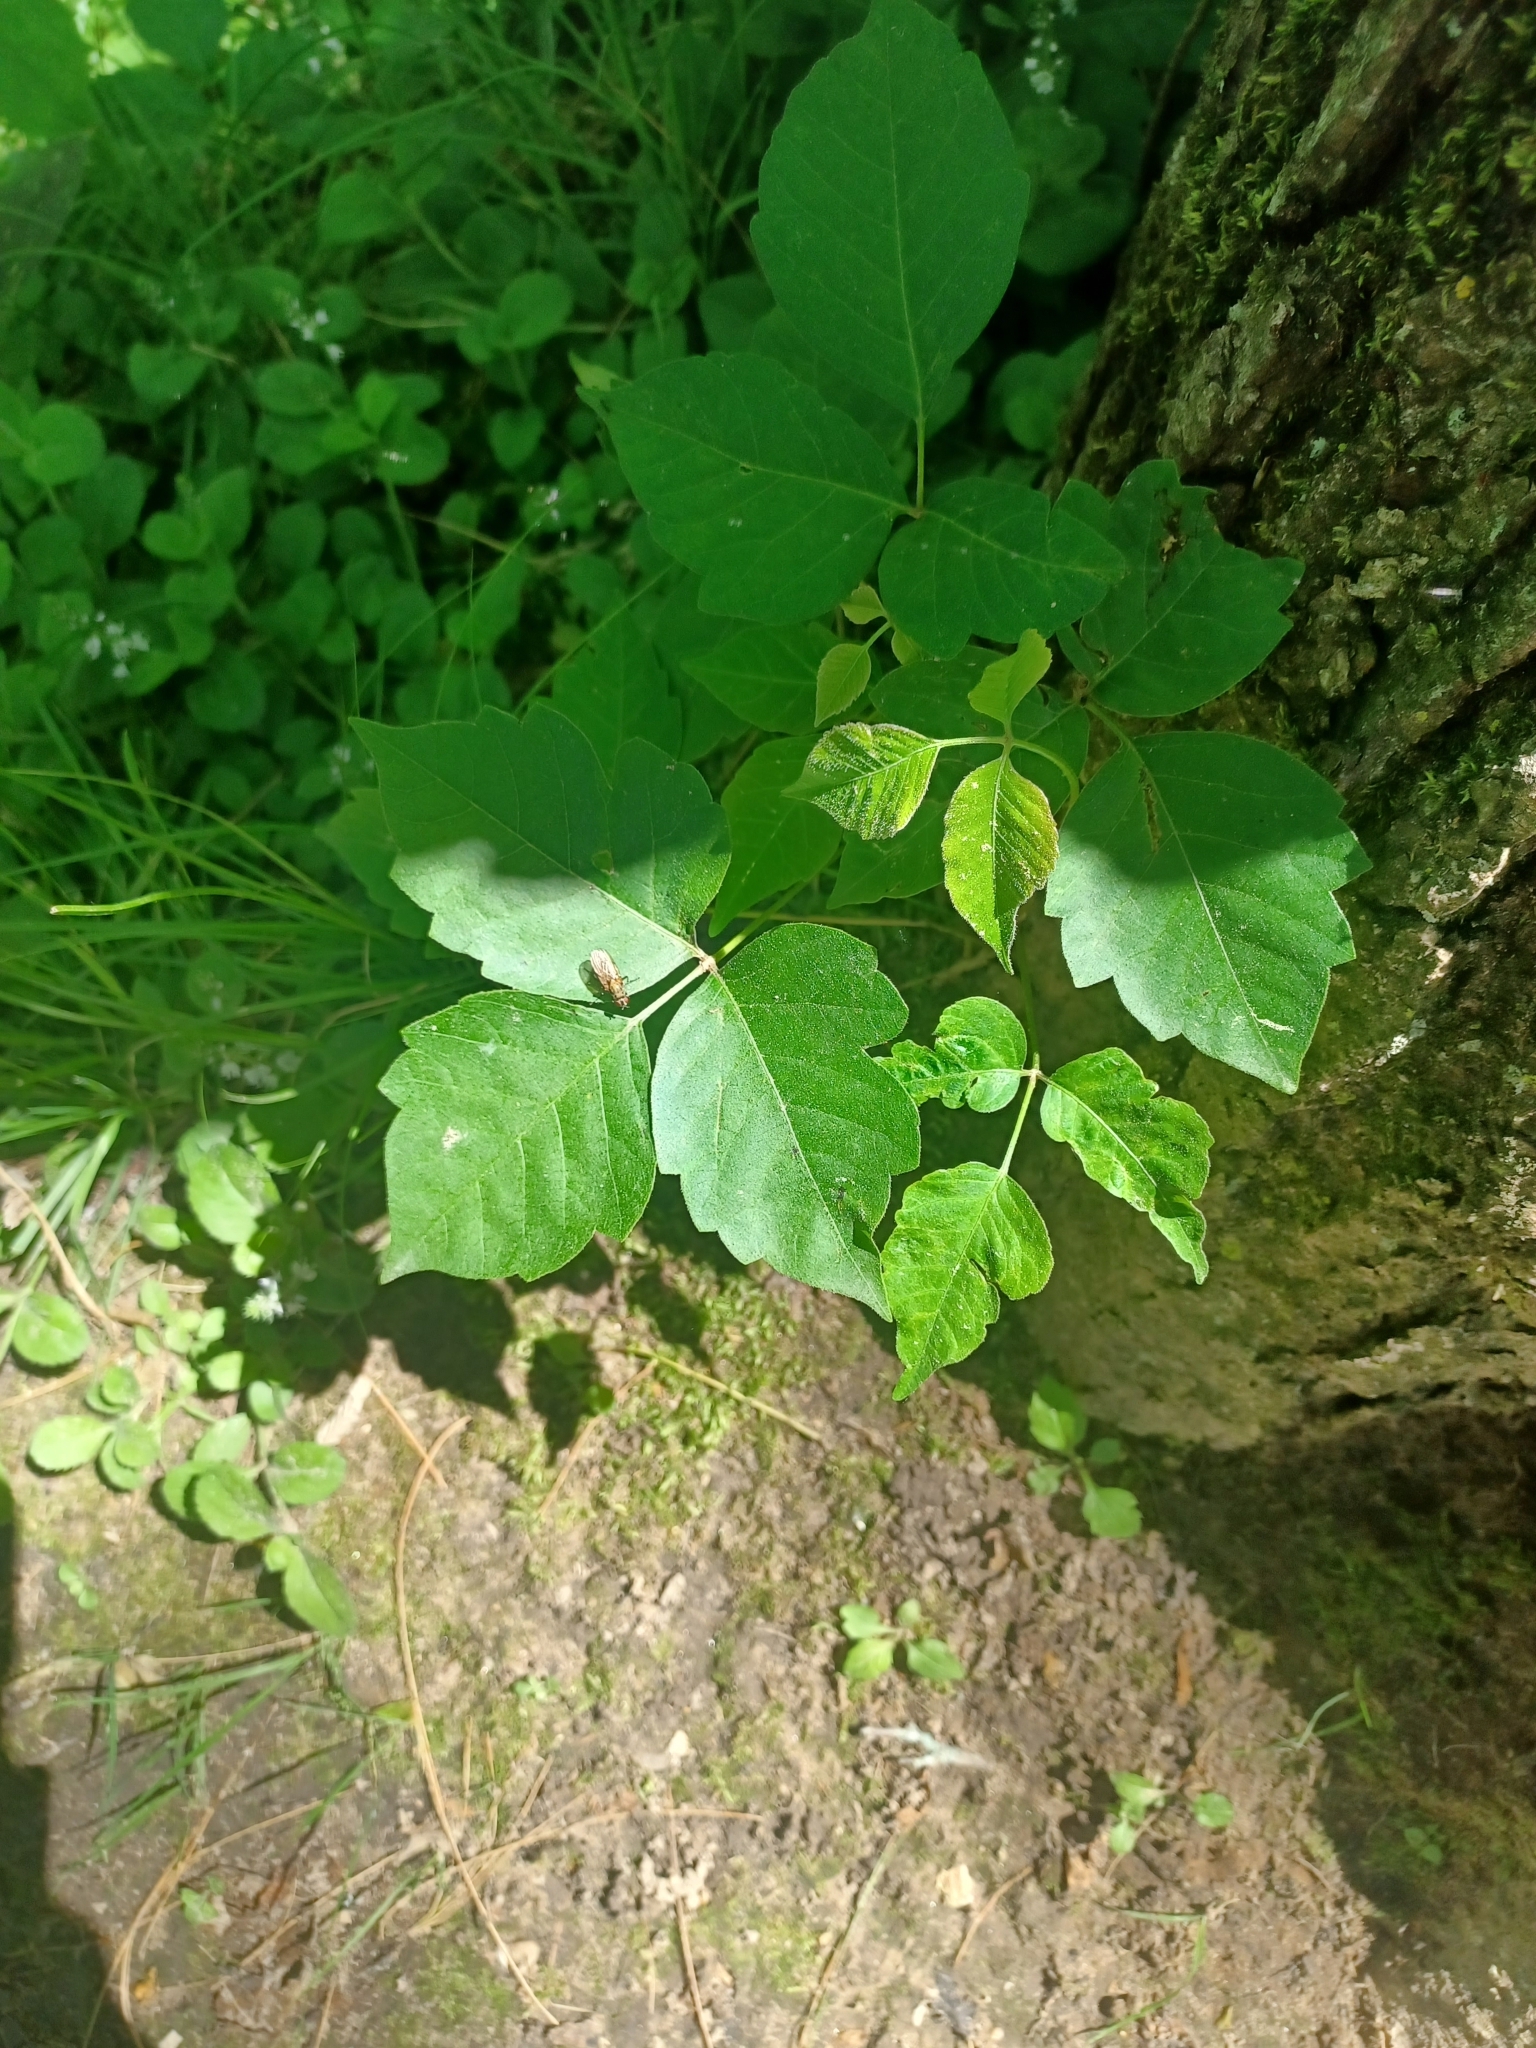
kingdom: Plantae
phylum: Tracheophyta
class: Magnoliopsida
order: Sapindales
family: Anacardiaceae
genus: Toxicodendron
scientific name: Toxicodendron radicans
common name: Poison ivy
